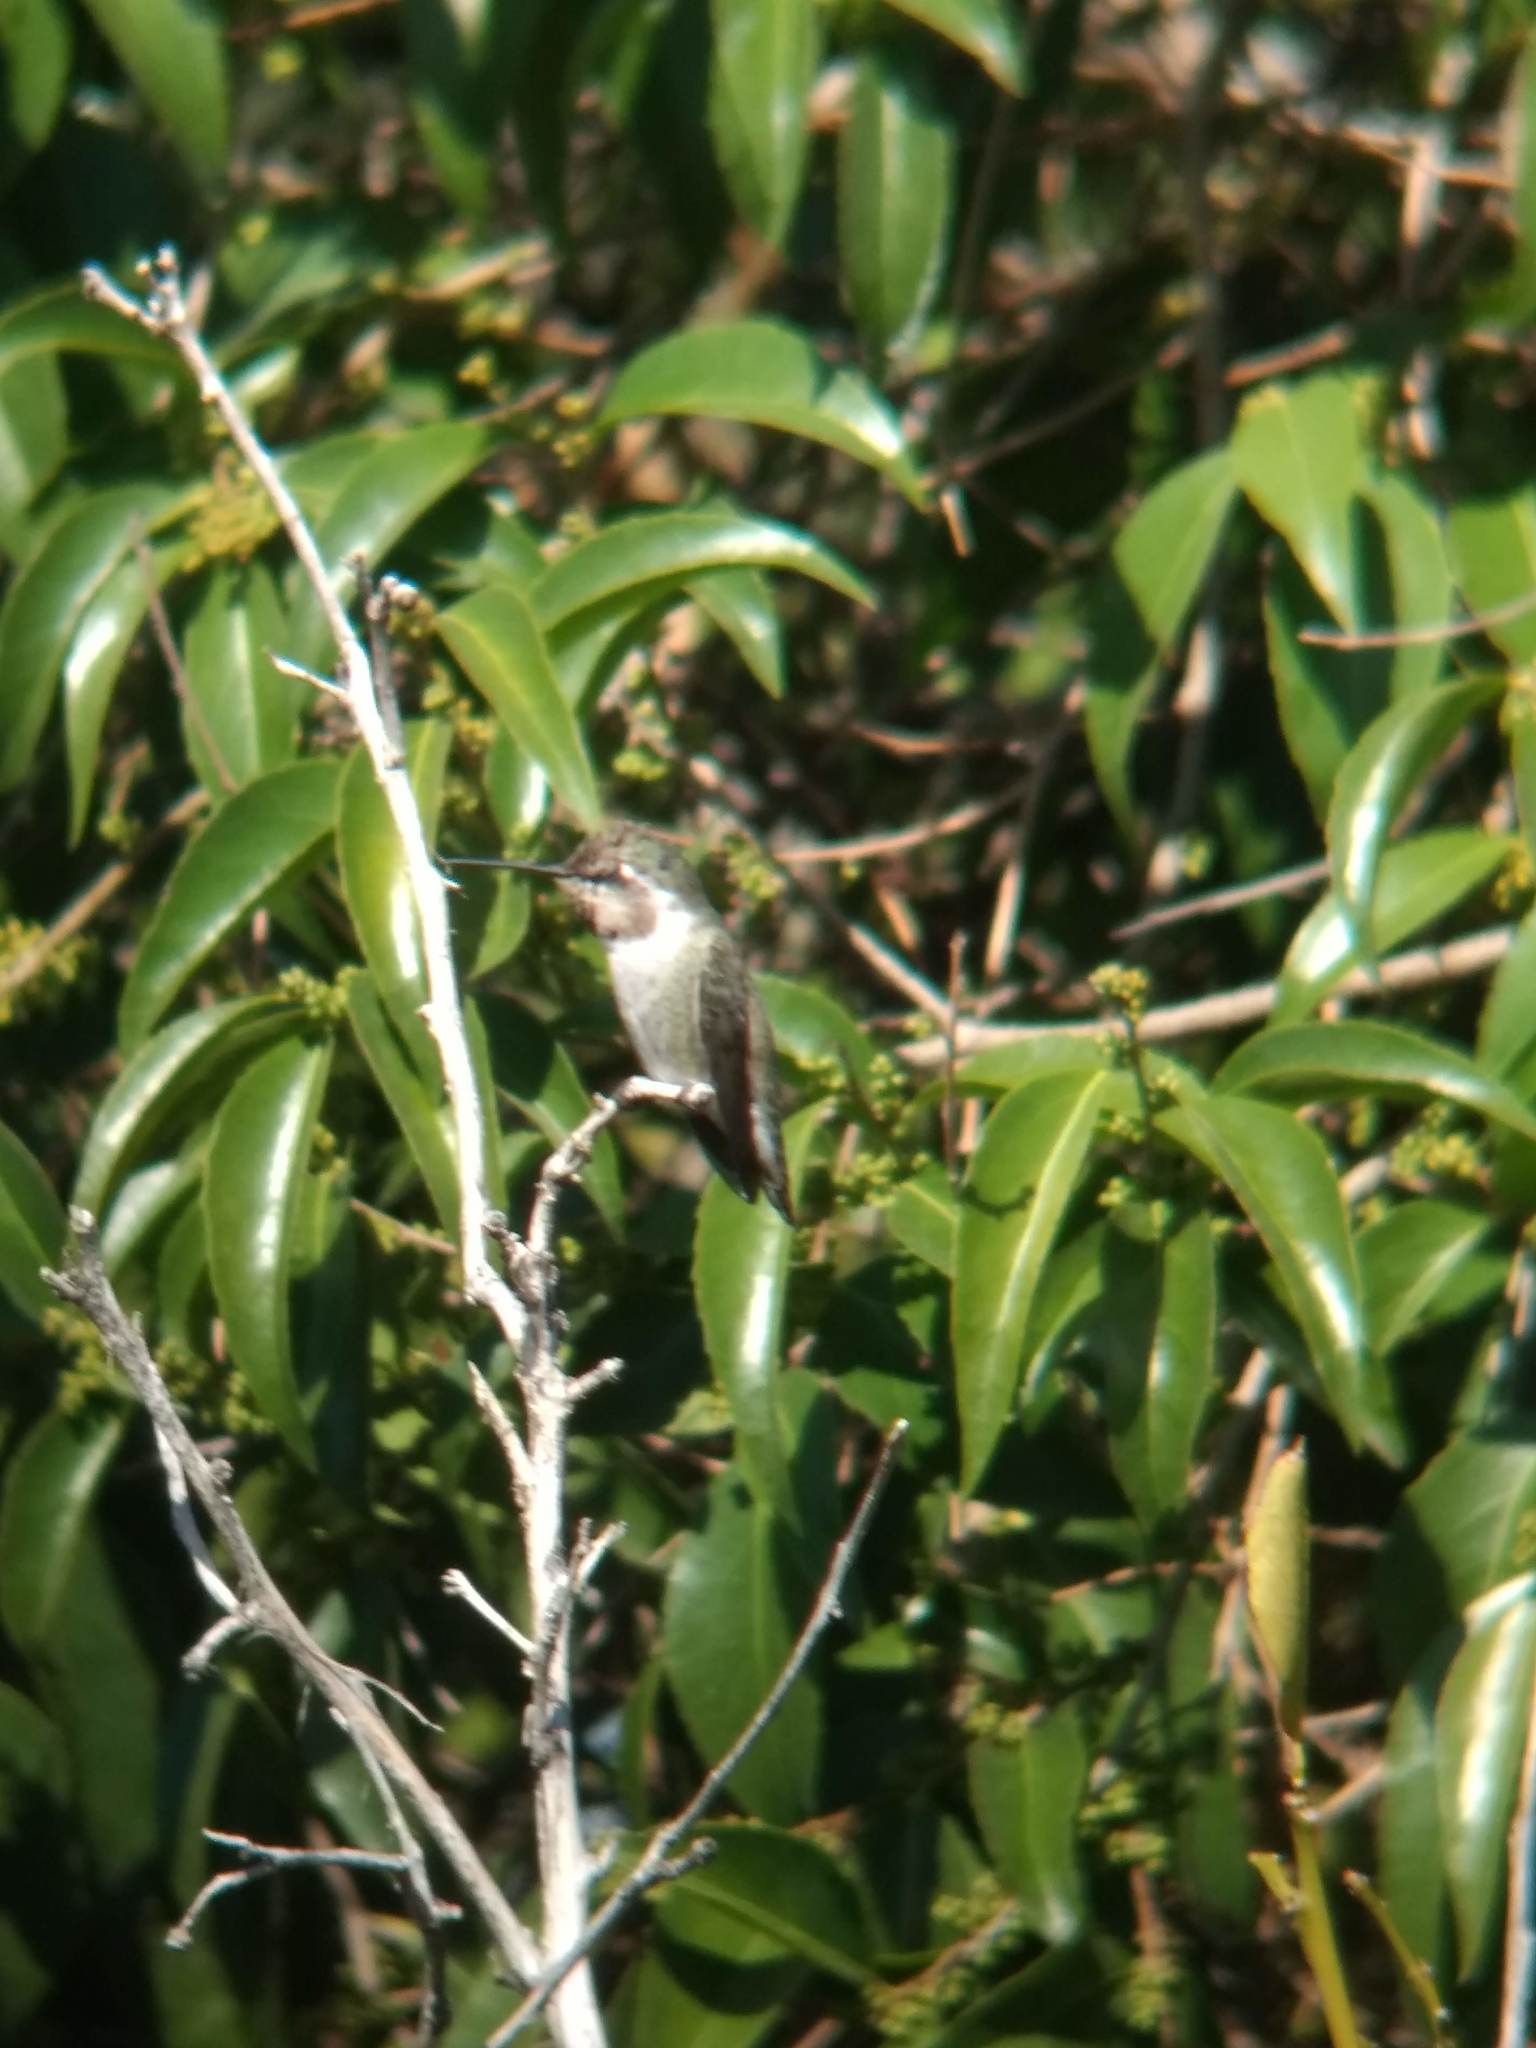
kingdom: Animalia
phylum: Chordata
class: Aves
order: Apodiformes
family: Trochilidae
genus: Calypte
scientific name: Calypte costae
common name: Costa's hummingbird
